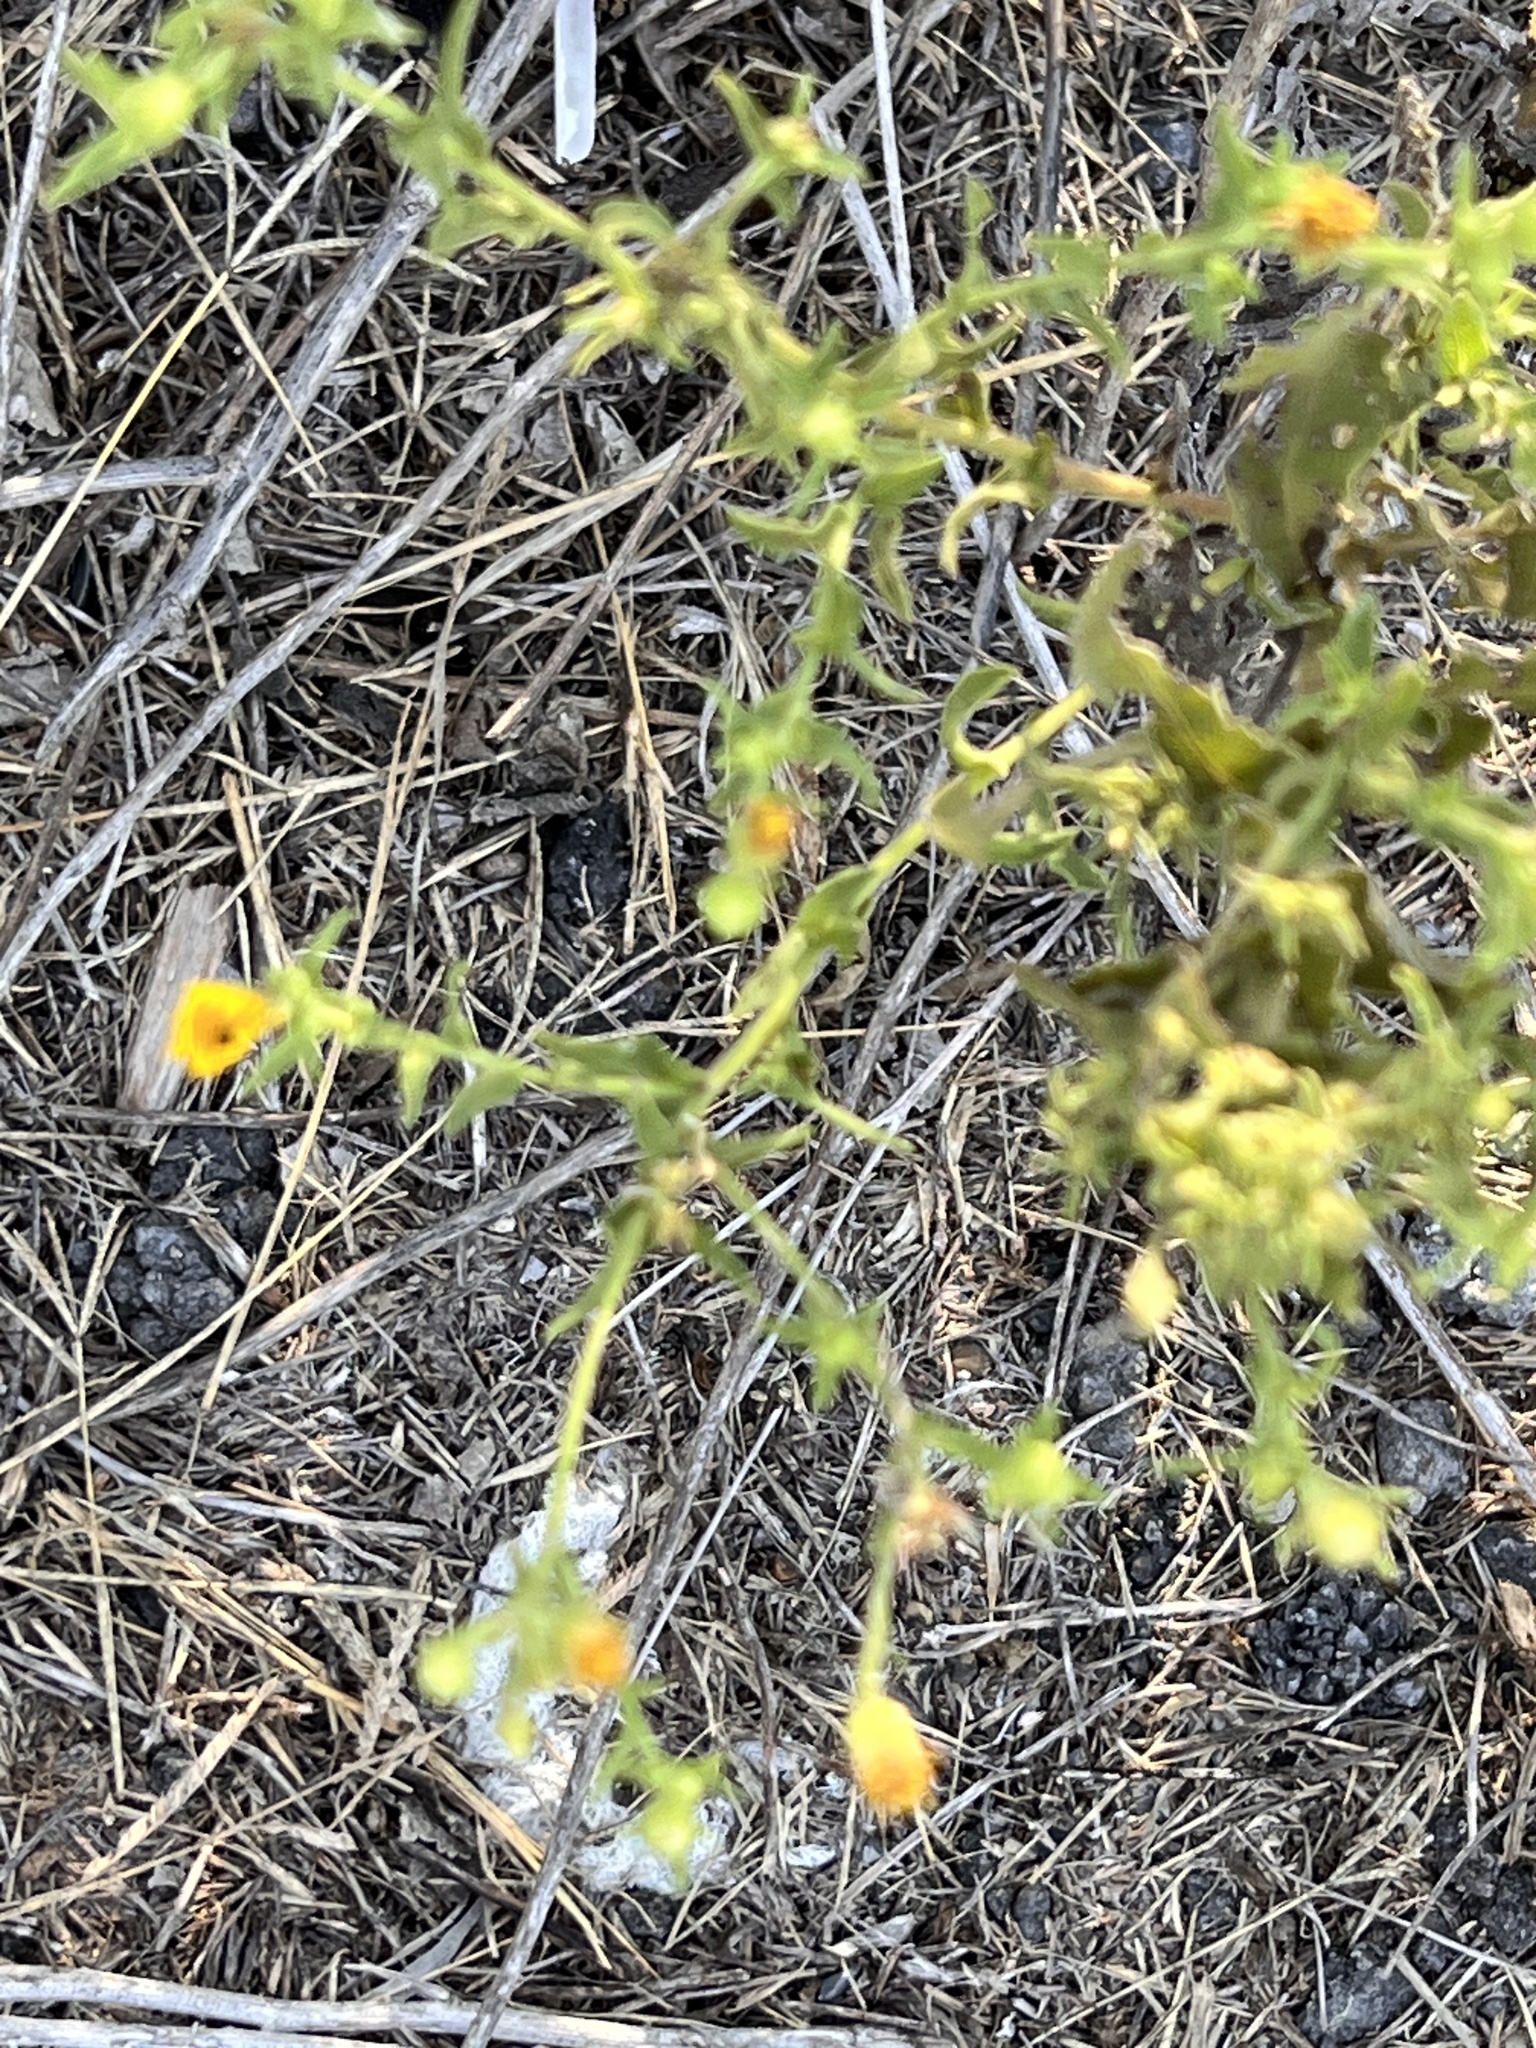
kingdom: Plantae
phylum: Tracheophyta
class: Magnoliopsida
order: Asterales
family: Asteraceae
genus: Heterotheca
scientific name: Heterotheca subaxillaris
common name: Camphorweed
